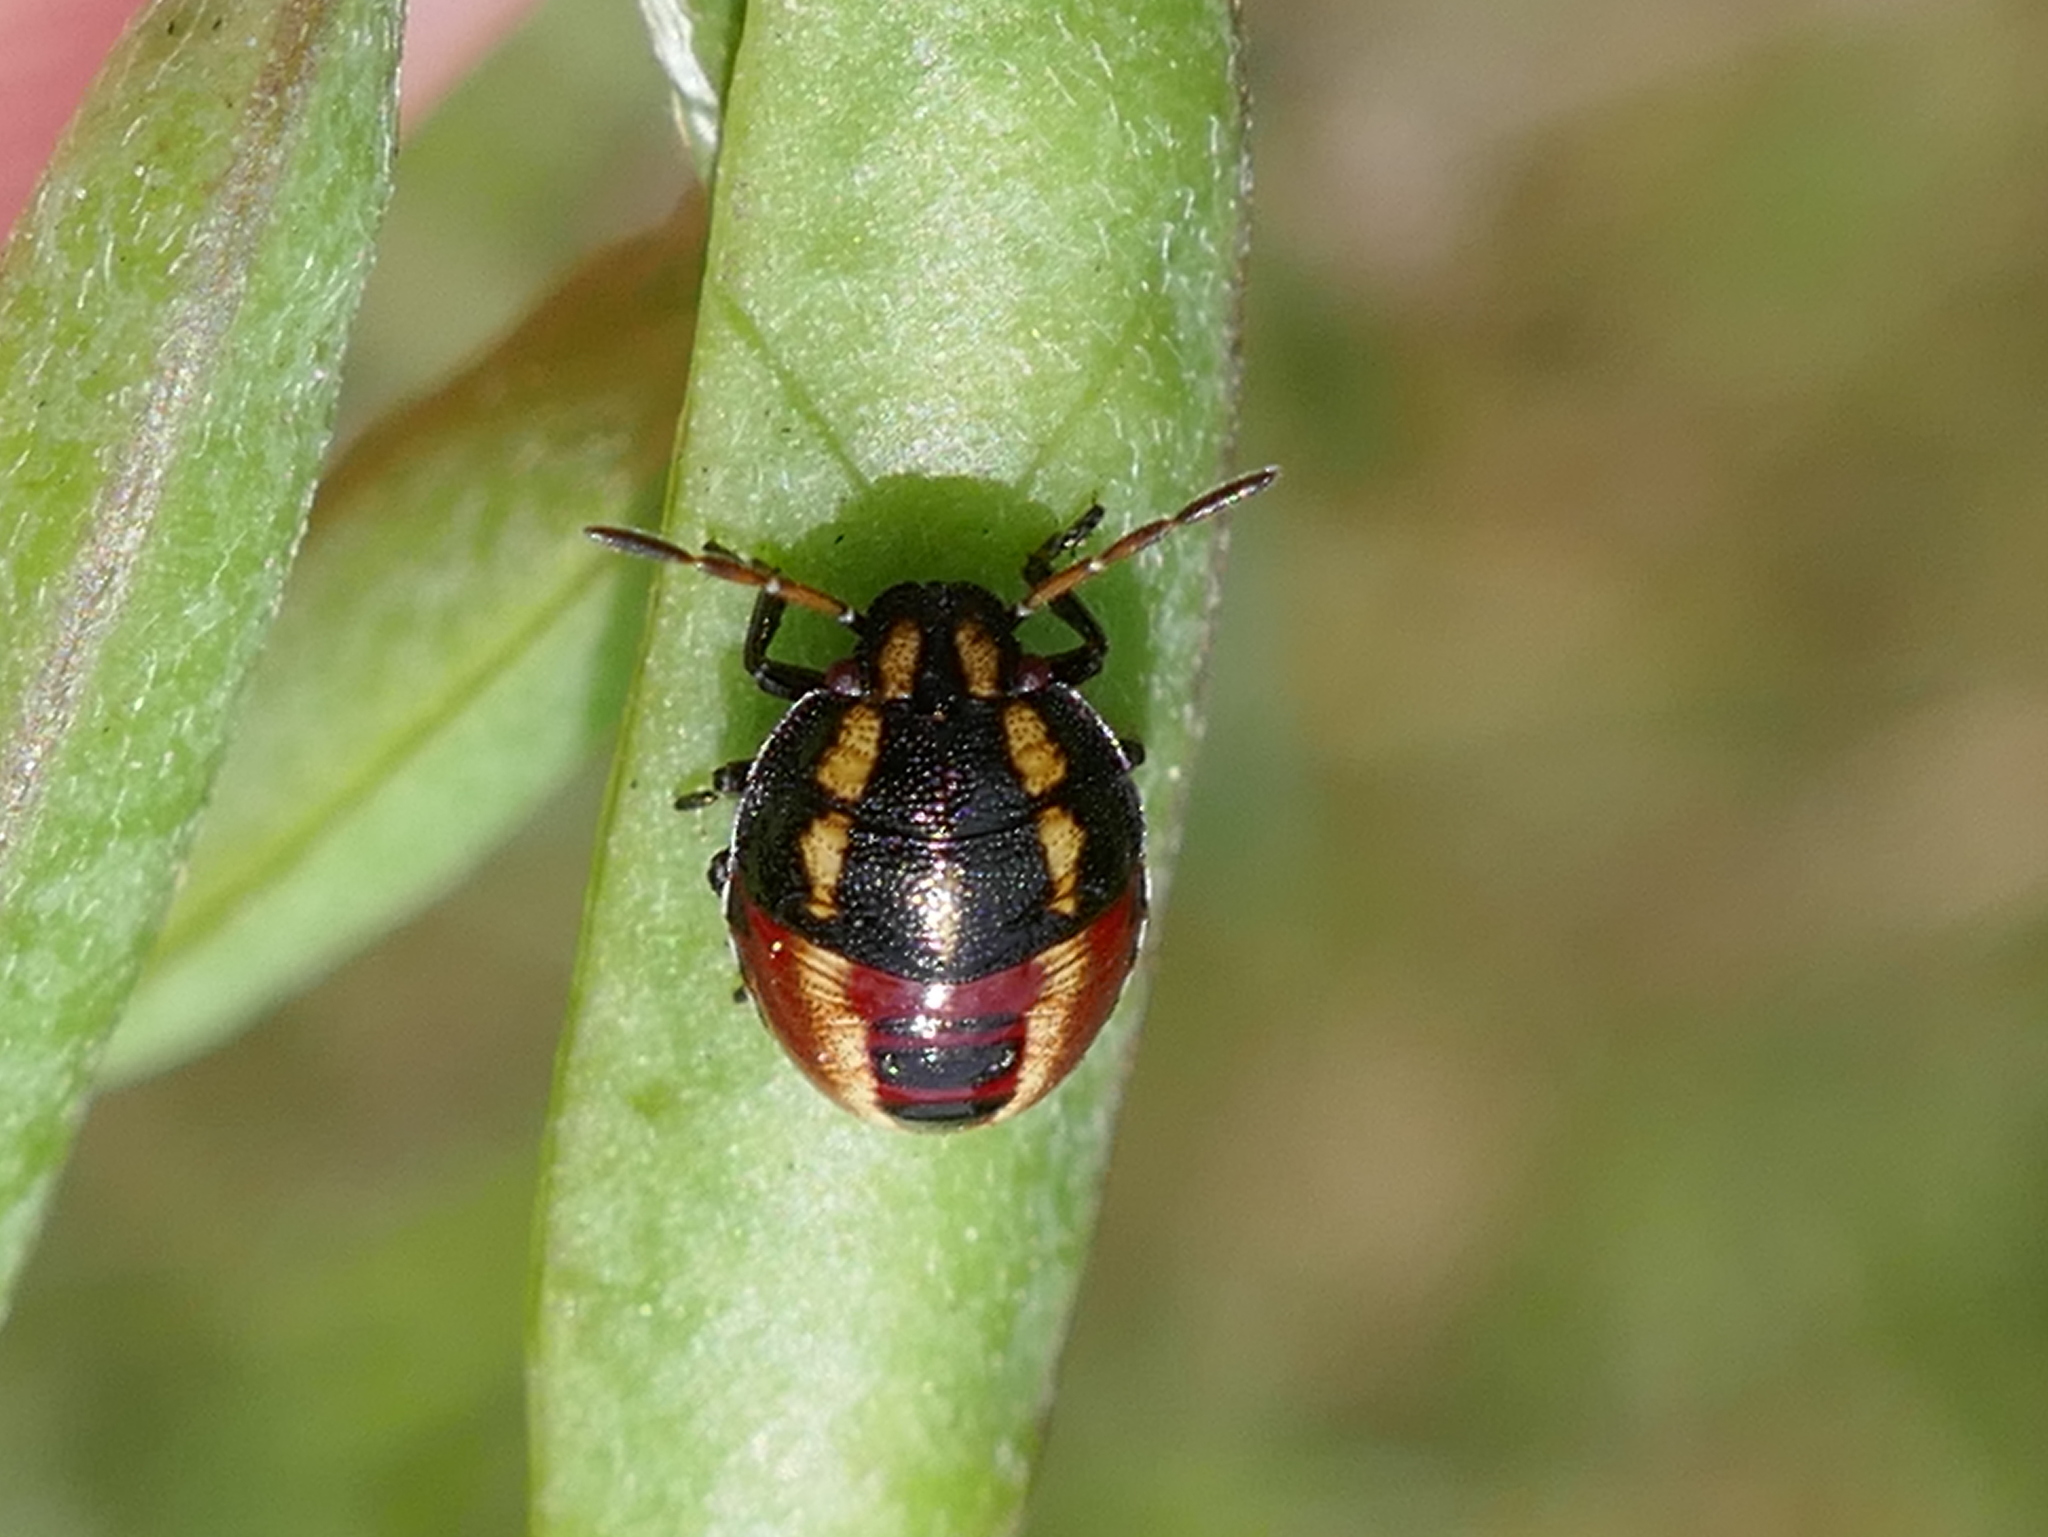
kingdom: Animalia
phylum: Arthropoda
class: Insecta
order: Hemiptera
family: Pentatomidae
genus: Piezodorus
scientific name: Piezodorus guildinii
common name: Redbanded stink bug
